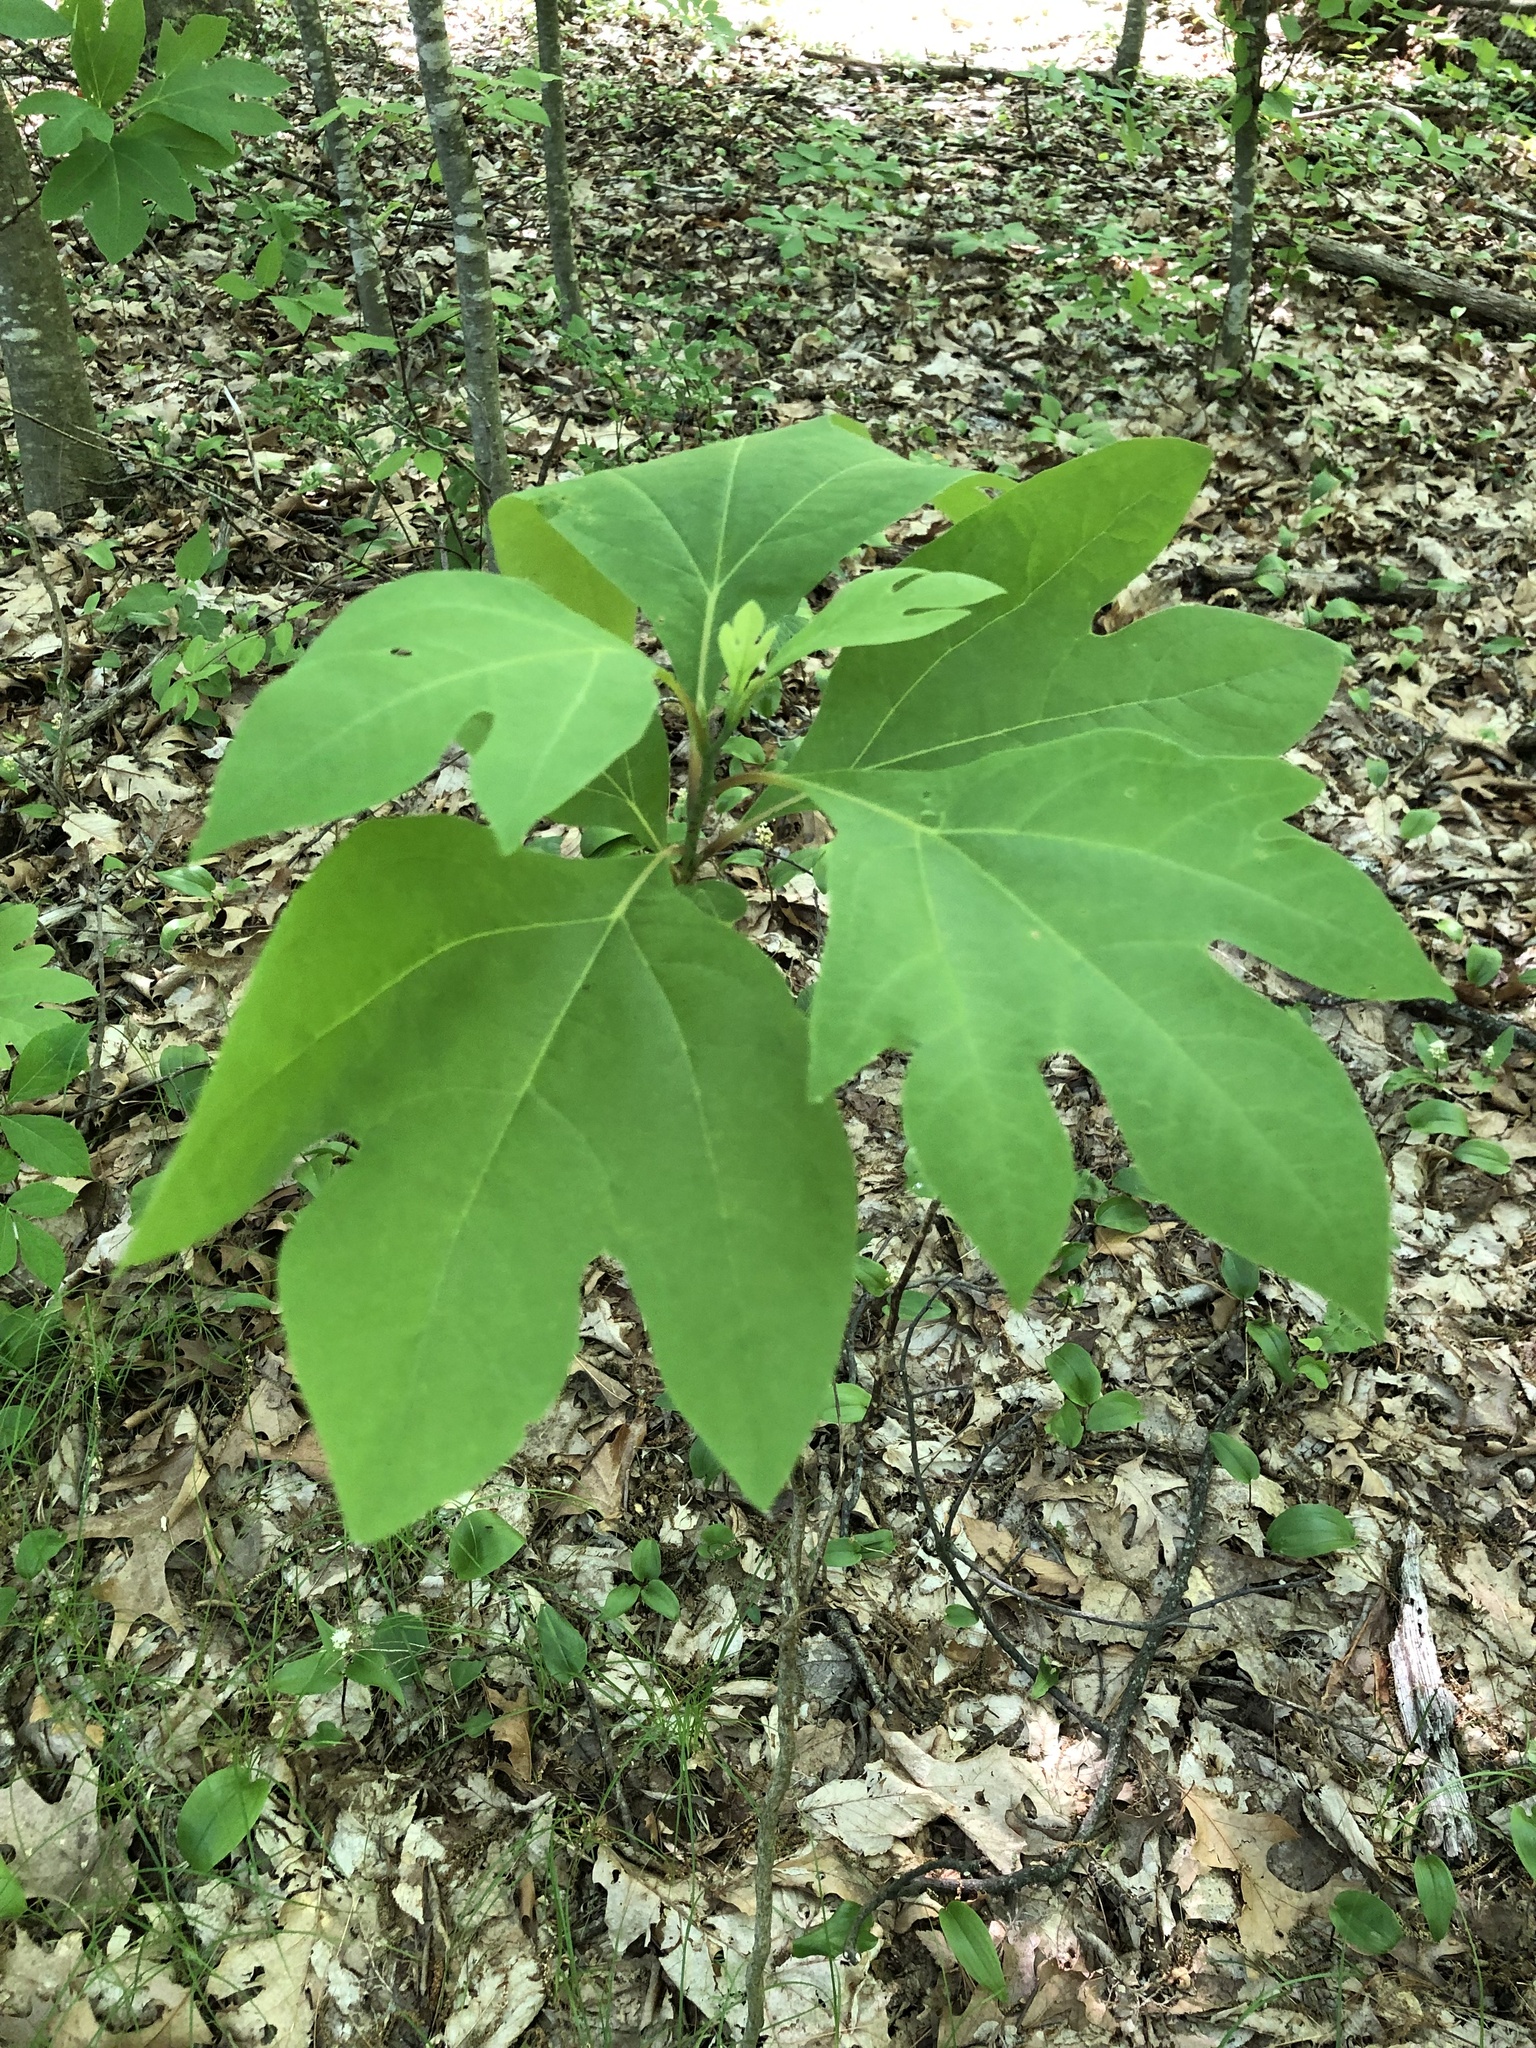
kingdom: Plantae
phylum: Tracheophyta
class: Magnoliopsida
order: Laurales
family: Lauraceae
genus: Sassafras
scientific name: Sassafras albidum
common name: Sassafras
